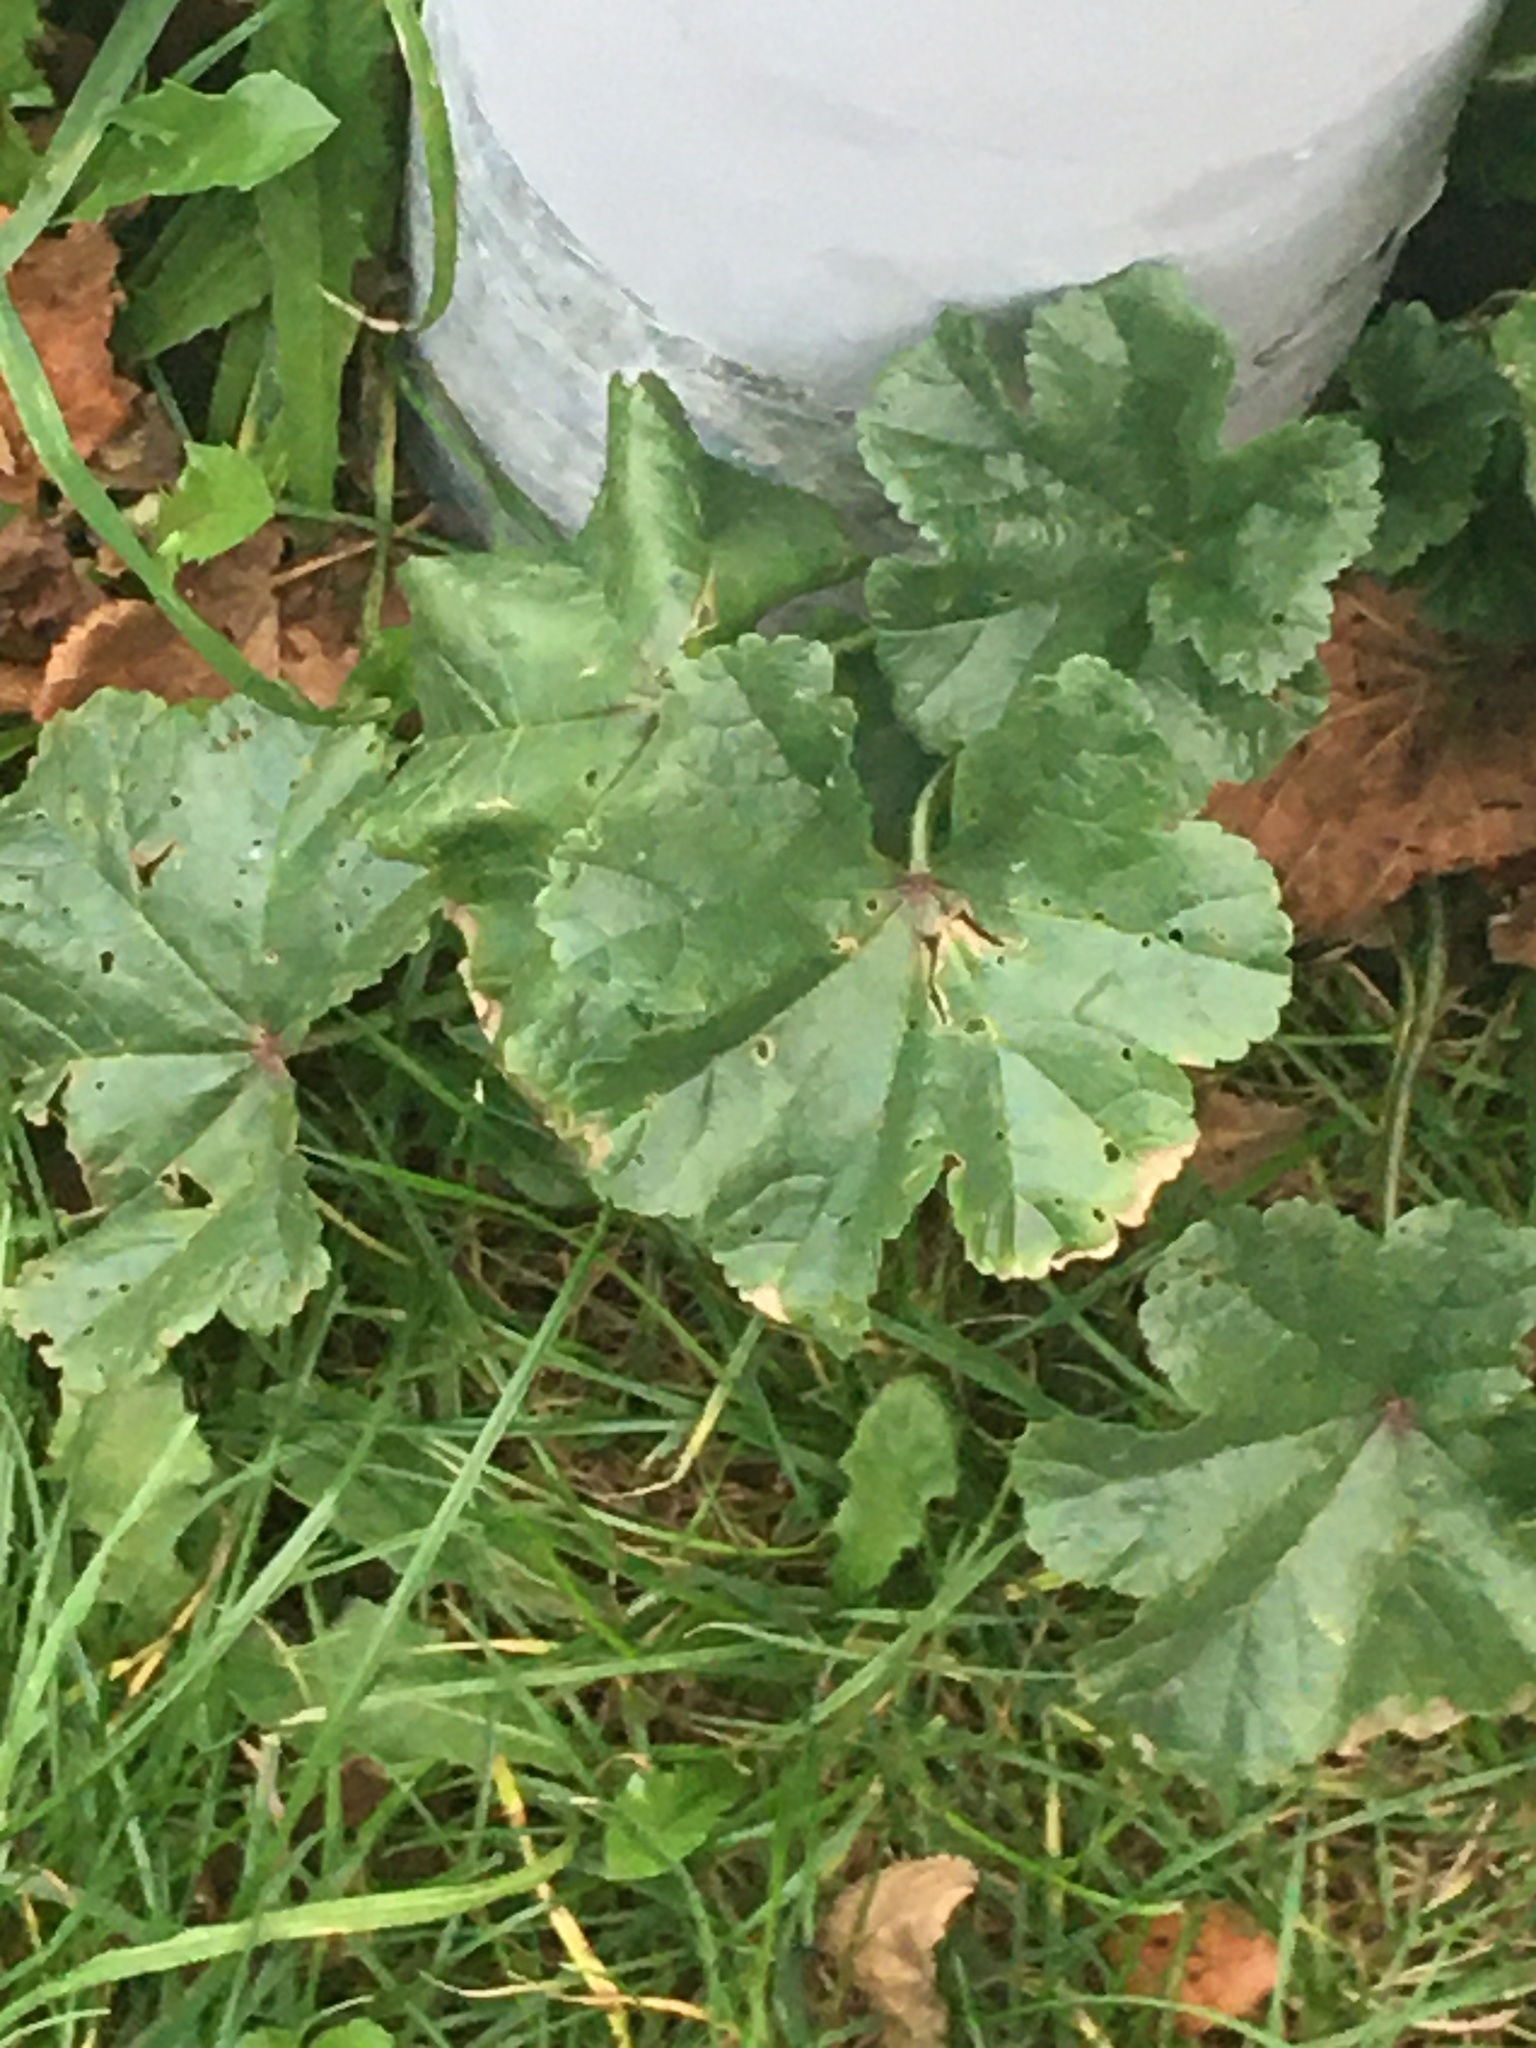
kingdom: Plantae
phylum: Tracheophyta
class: Magnoliopsida
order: Malvales
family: Malvaceae
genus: Malva
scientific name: Malva sylvestris
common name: Common mallow
